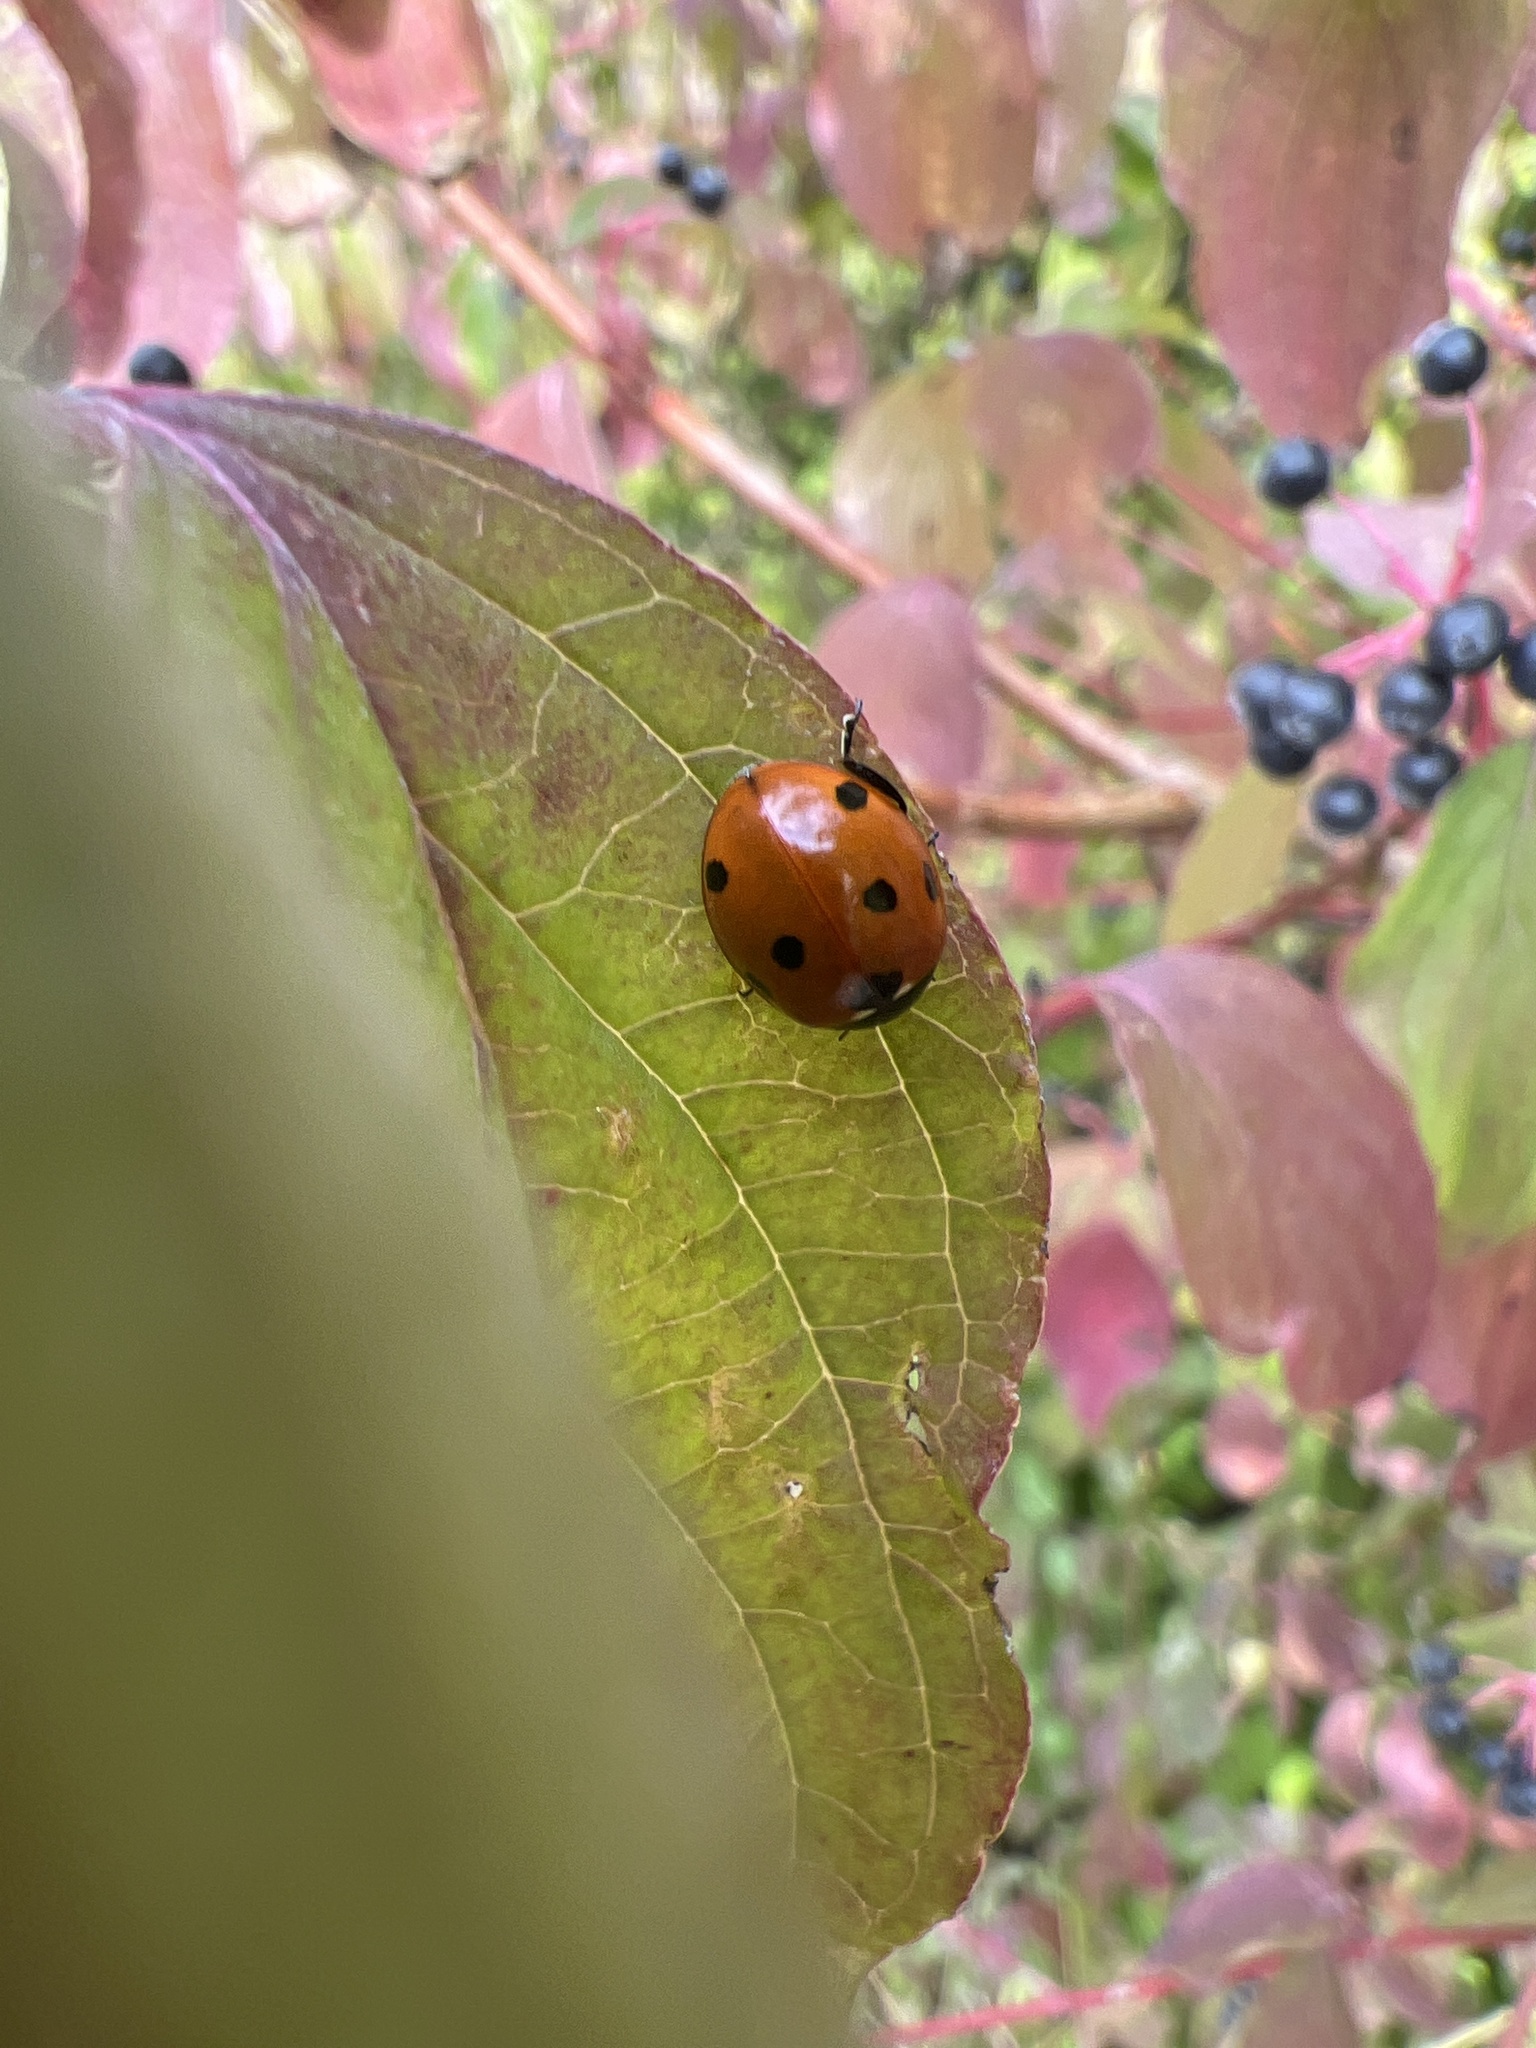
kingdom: Animalia
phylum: Arthropoda
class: Insecta
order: Coleoptera
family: Coccinellidae
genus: Coccinella
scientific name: Coccinella septempunctata
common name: Sevenspotted lady beetle
